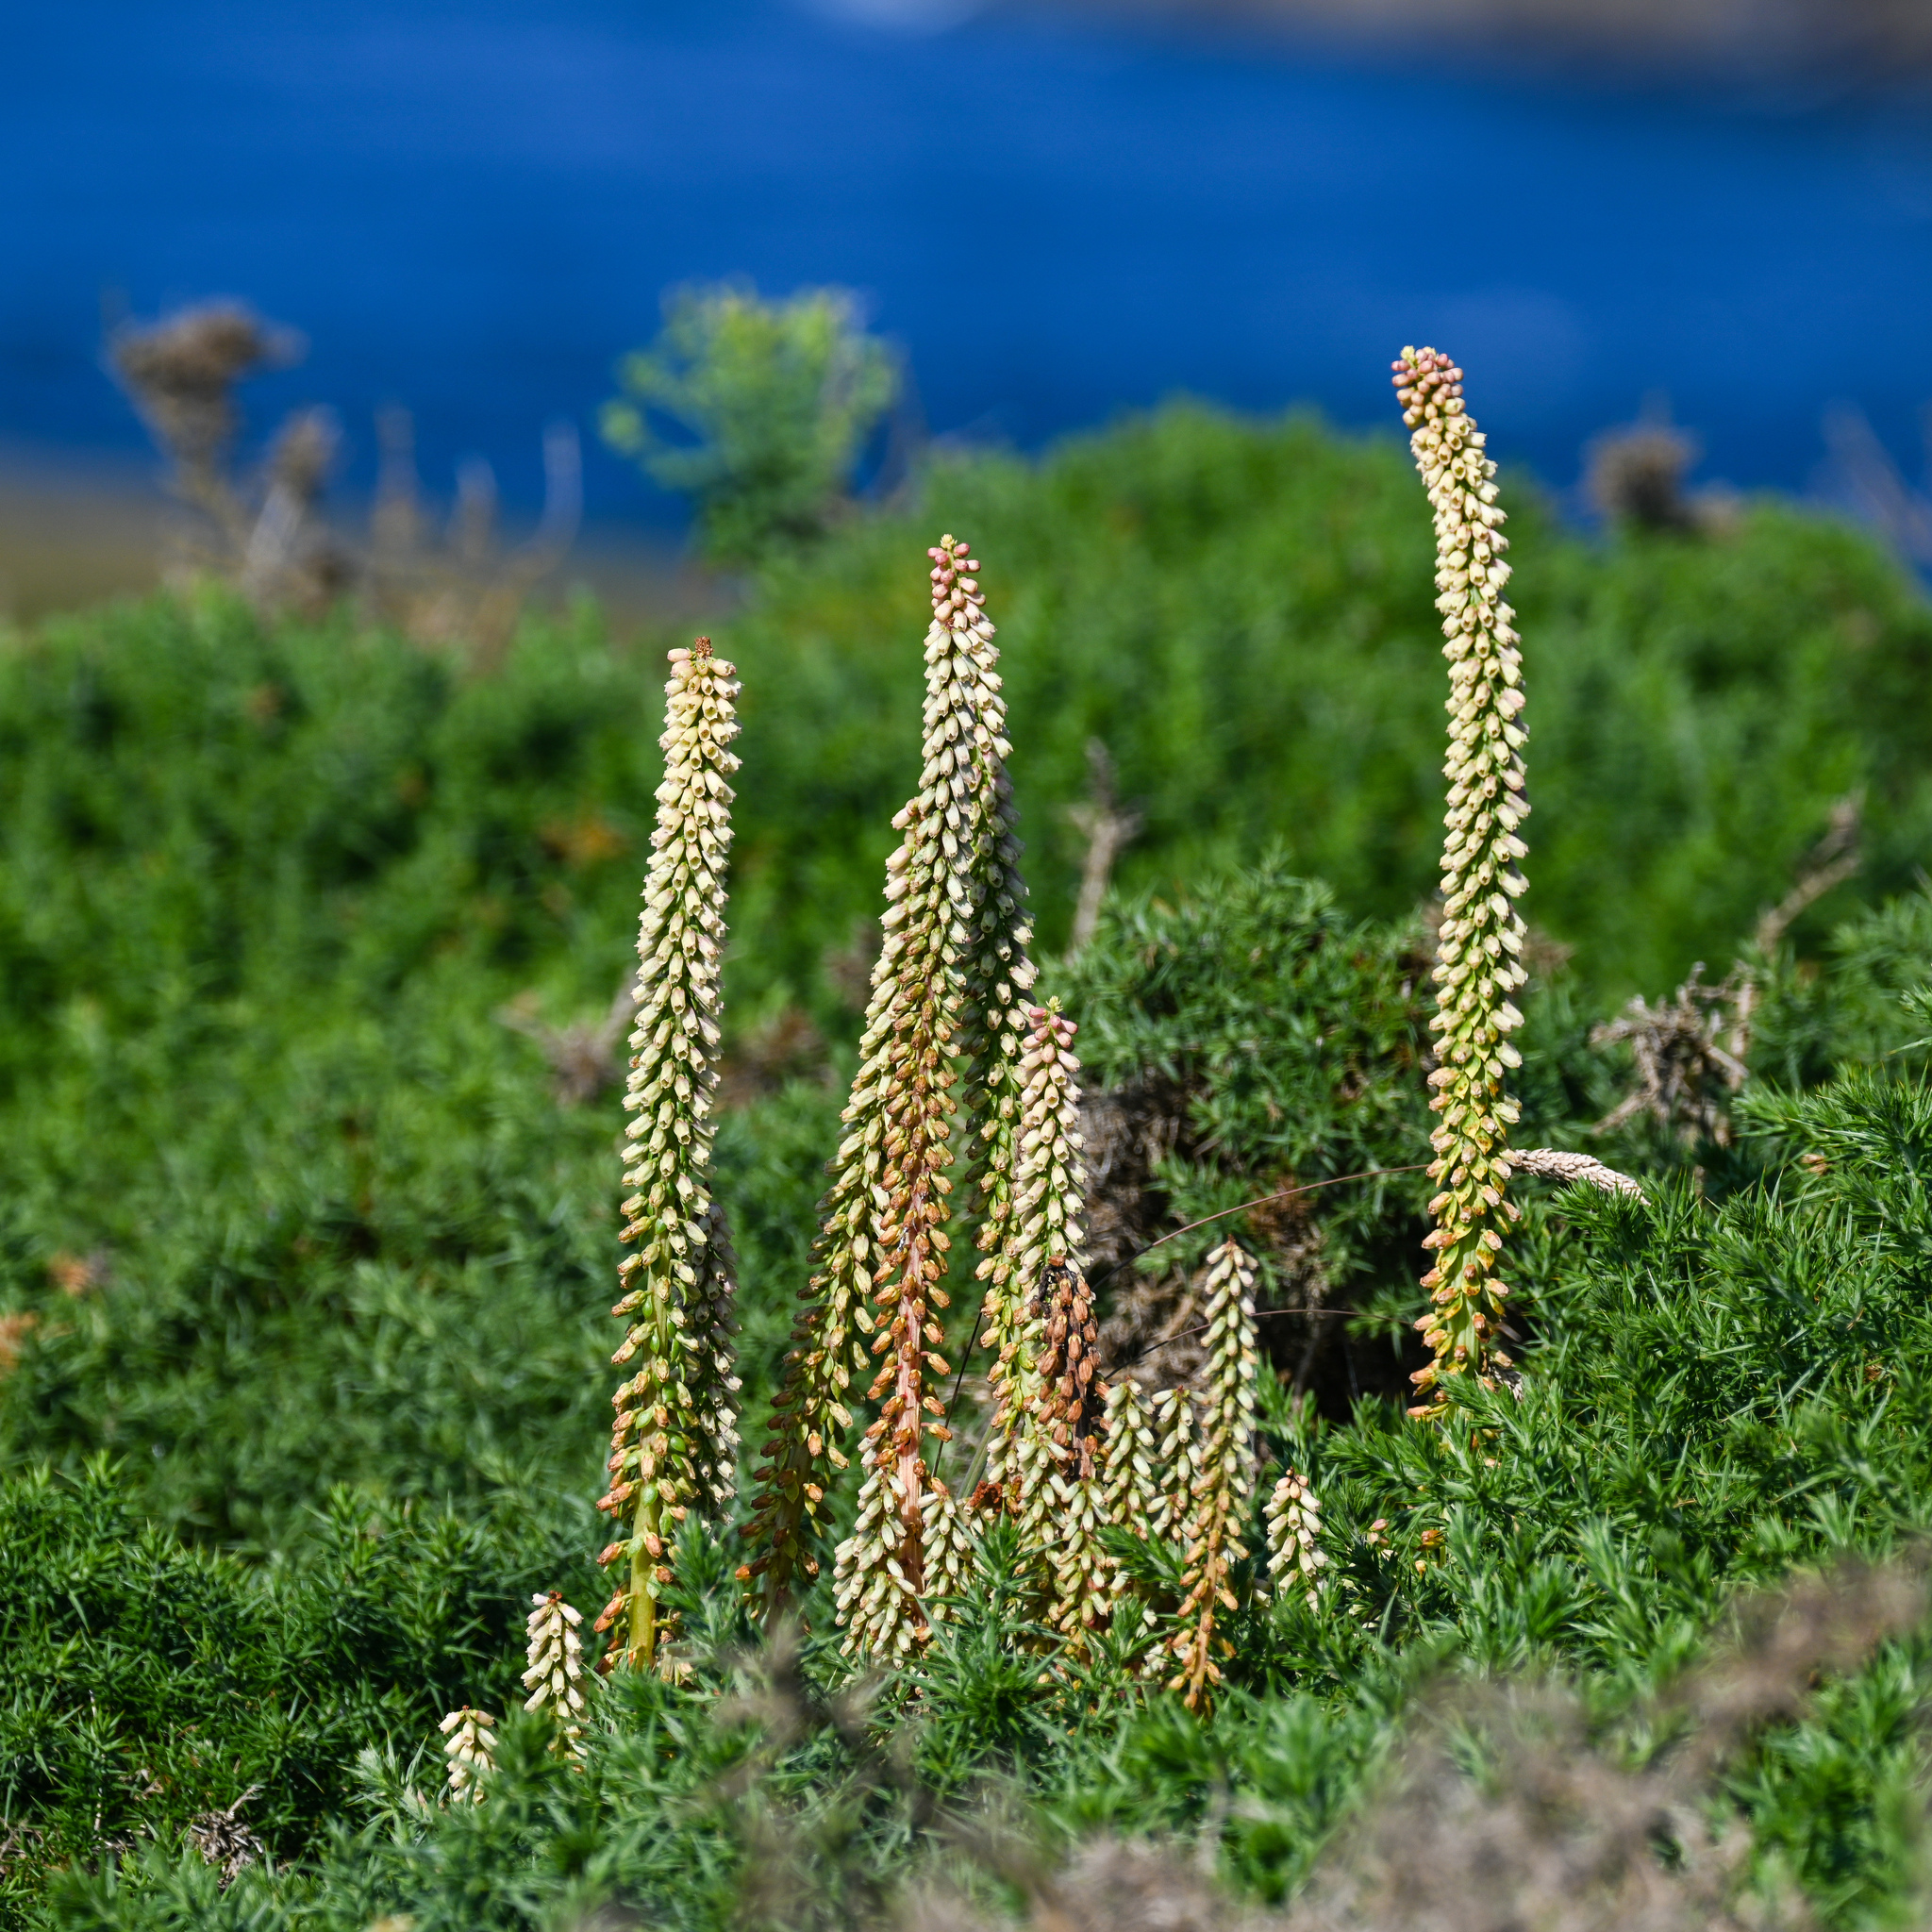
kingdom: Plantae
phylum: Tracheophyta
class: Magnoliopsida
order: Saxifragales
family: Crassulaceae
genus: Umbilicus
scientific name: Umbilicus rupestris
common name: Navelwort
